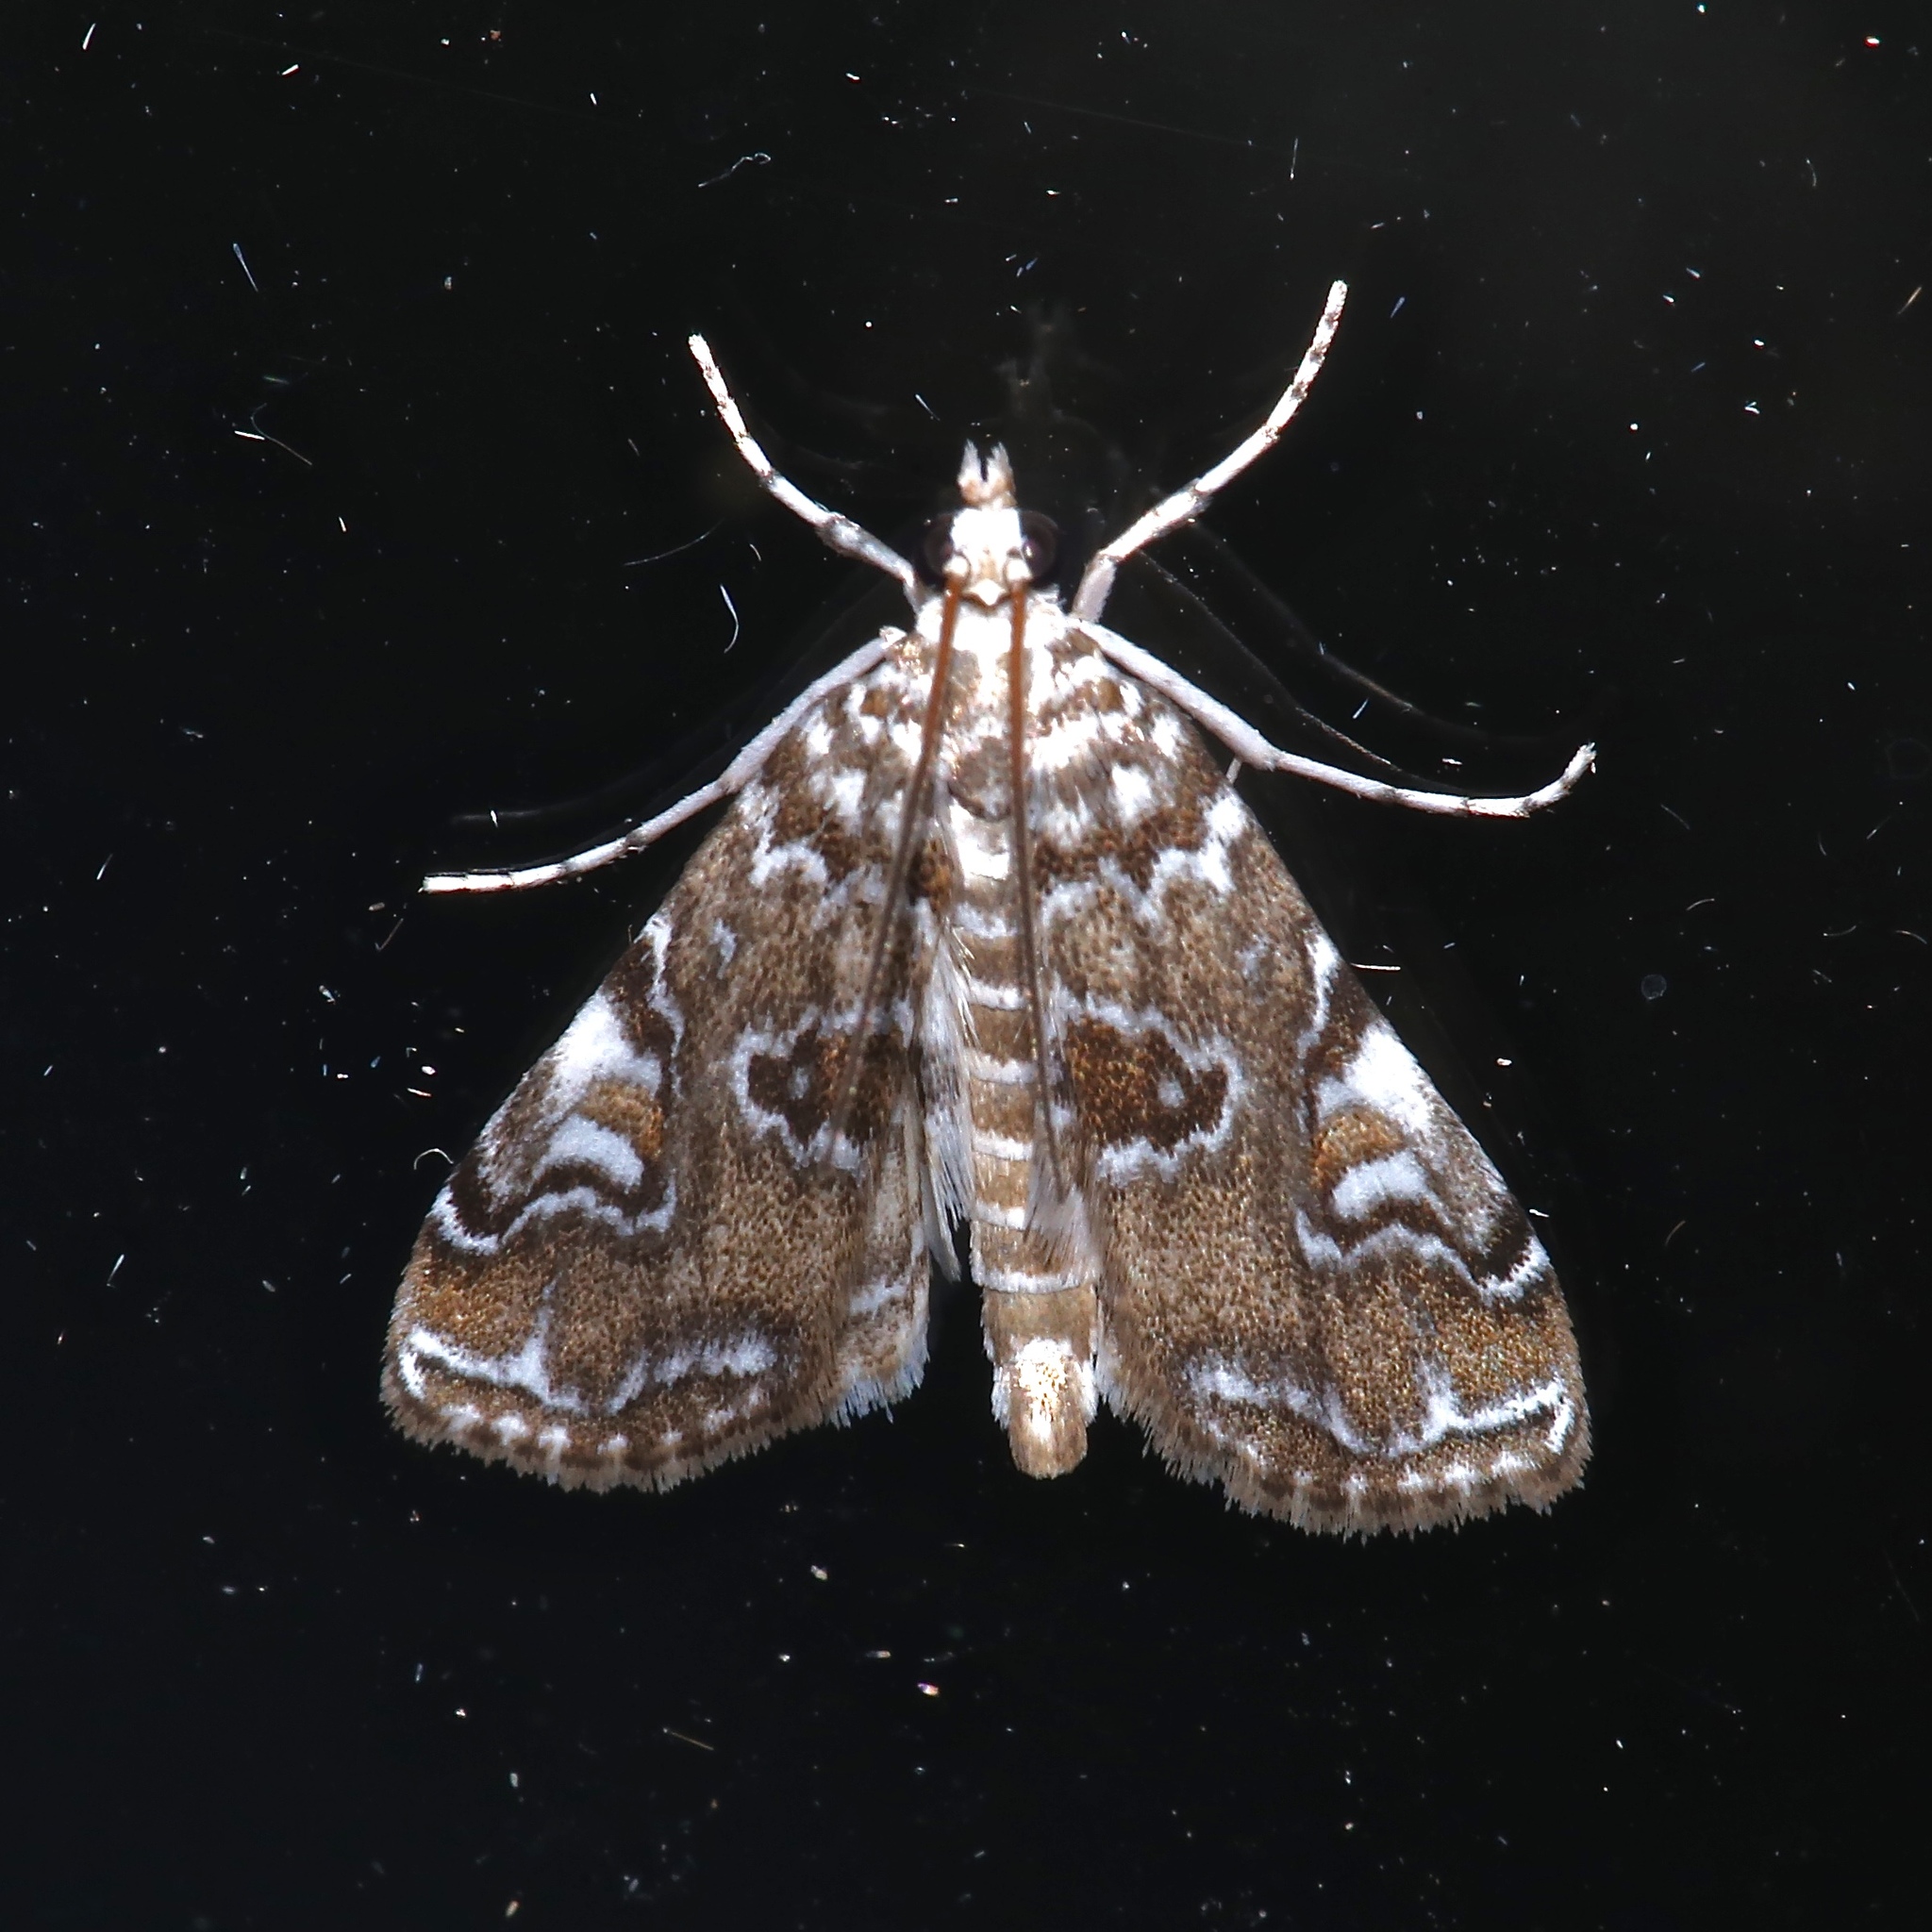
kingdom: Animalia
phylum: Arthropoda
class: Insecta
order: Lepidoptera
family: Crambidae
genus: Elophila
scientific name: Elophila gyralis
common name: Waterlily borer moth
